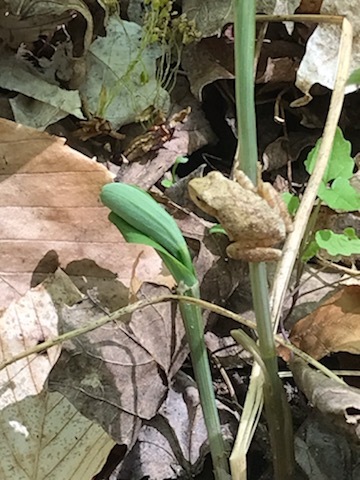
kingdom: Animalia
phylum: Chordata
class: Amphibia
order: Anura
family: Hylidae
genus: Pseudacris
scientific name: Pseudacris crucifer
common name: Spring peeper
